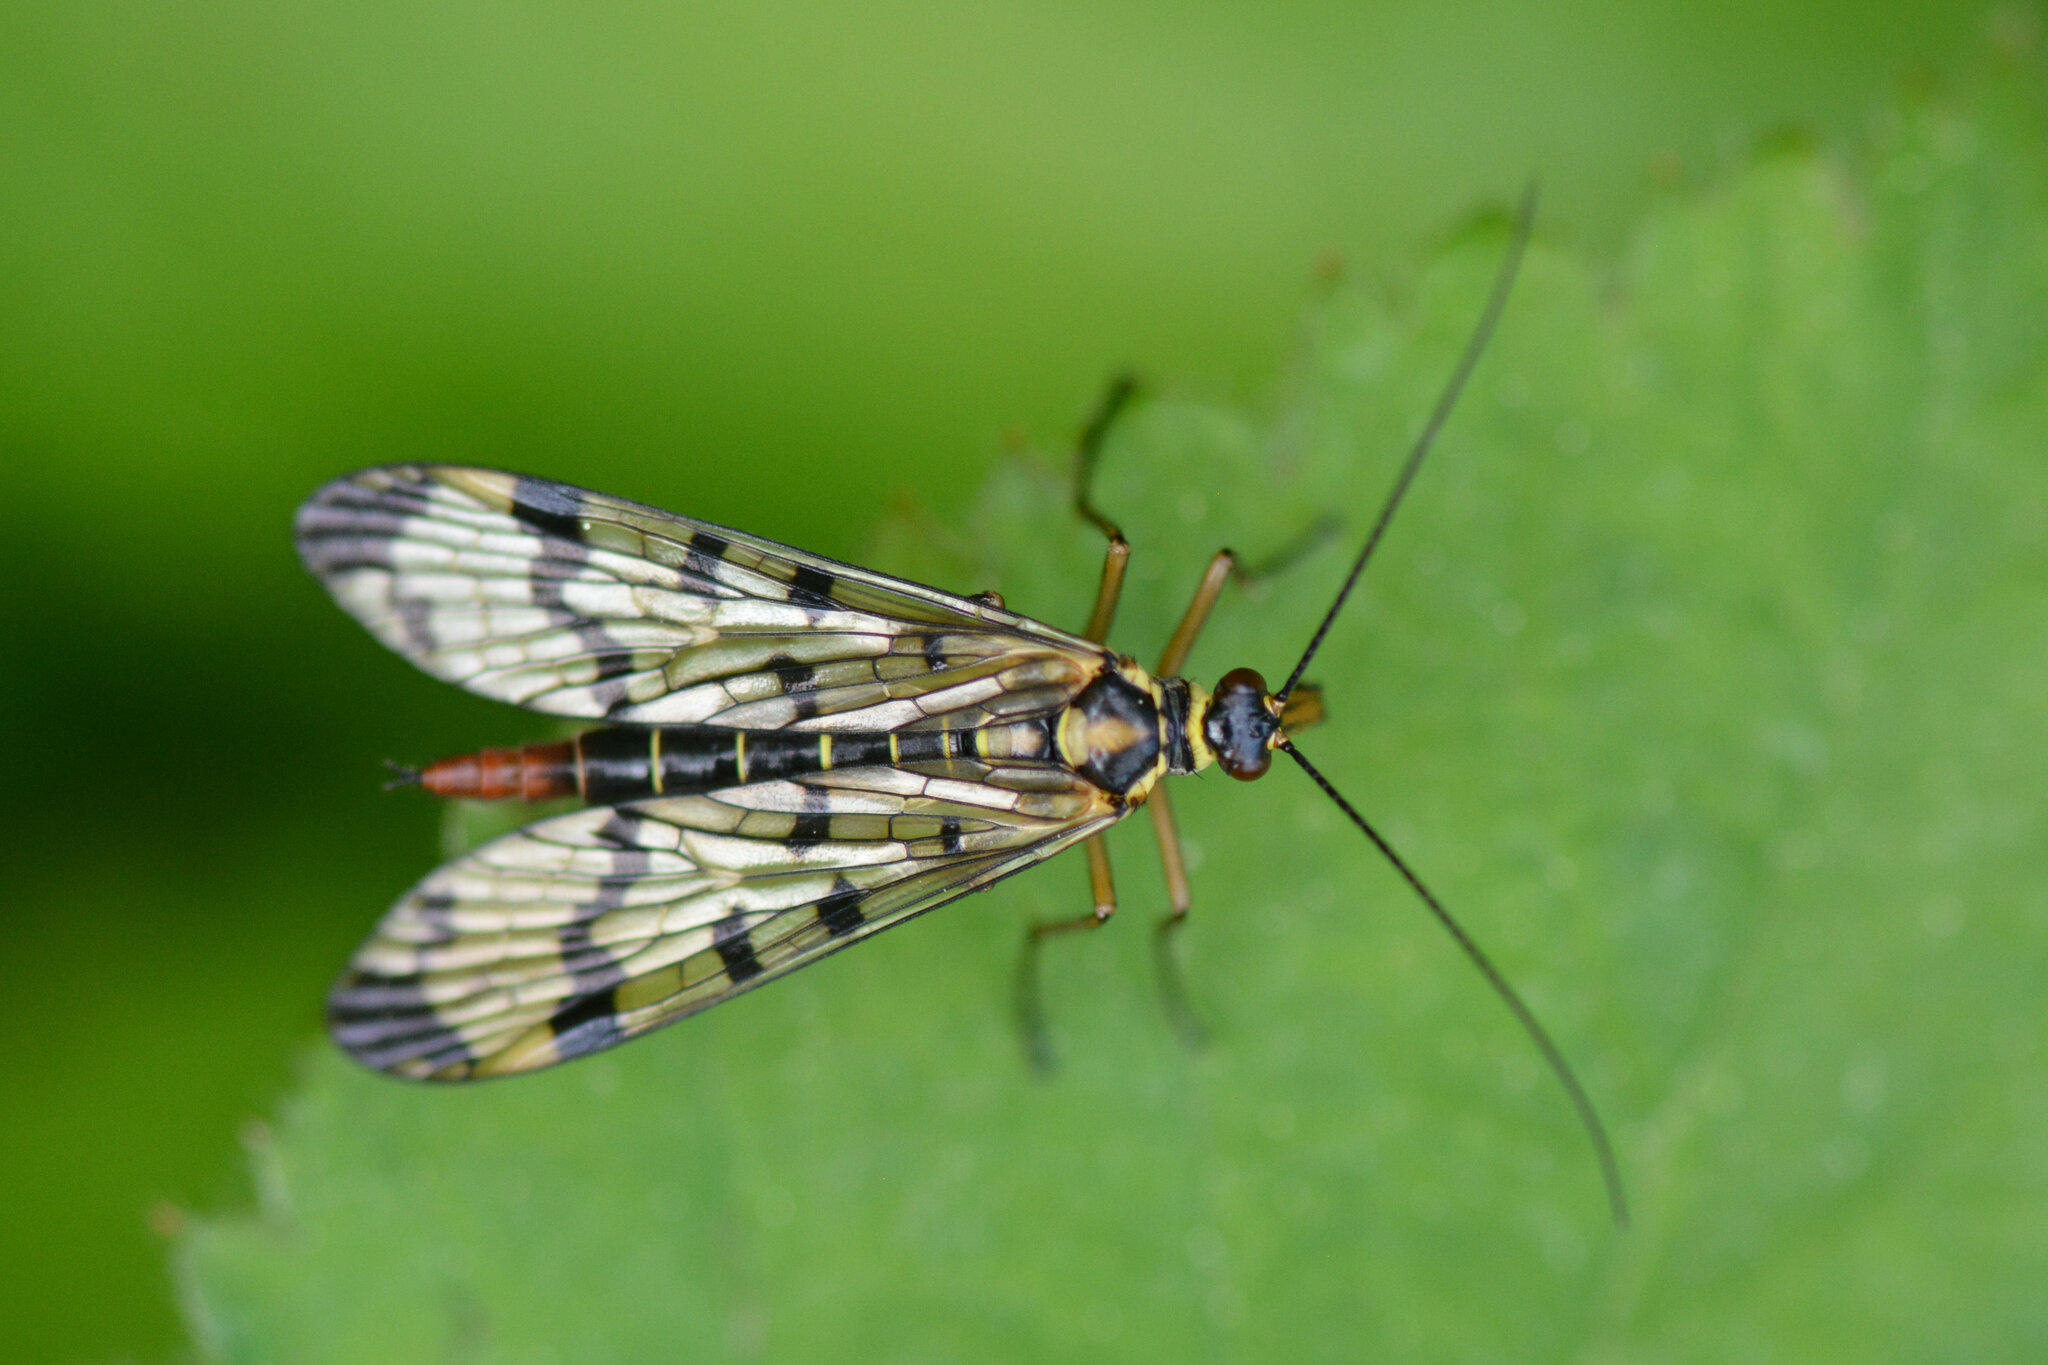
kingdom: Animalia
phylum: Arthropoda
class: Insecta
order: Mecoptera
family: Panorpidae
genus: Panorpa
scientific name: Panorpa communis
